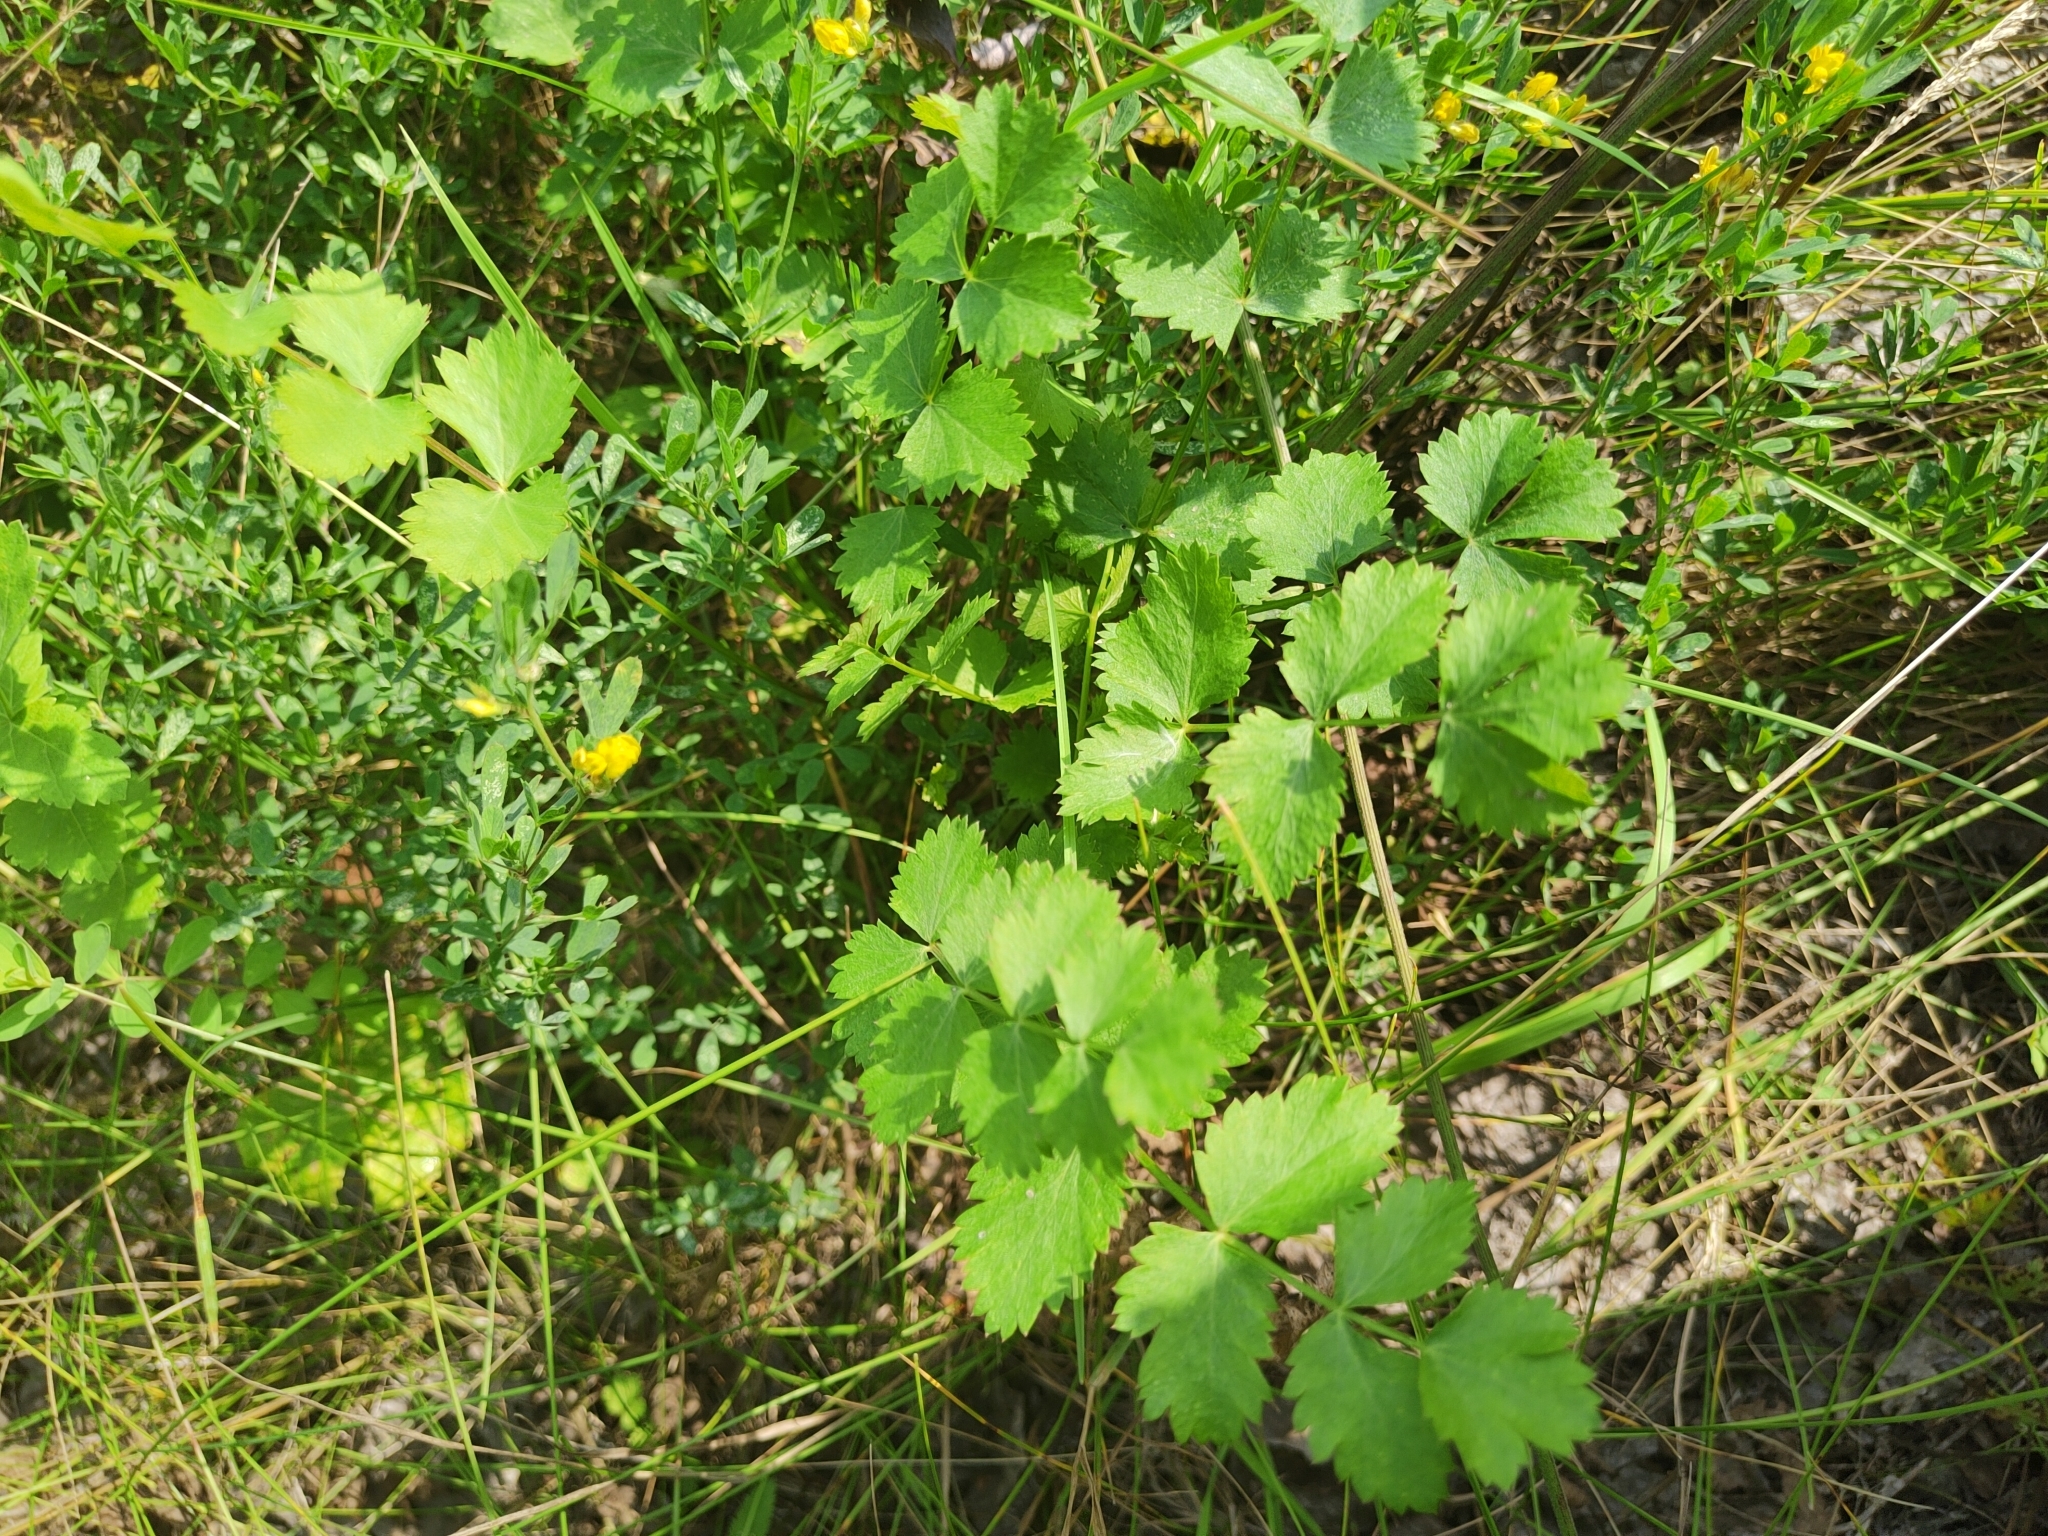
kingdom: Plantae
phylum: Tracheophyta
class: Magnoliopsida
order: Apiales
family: Apiaceae
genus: Pimpinella
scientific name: Pimpinella saxifraga
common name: Burnet-saxifrage
